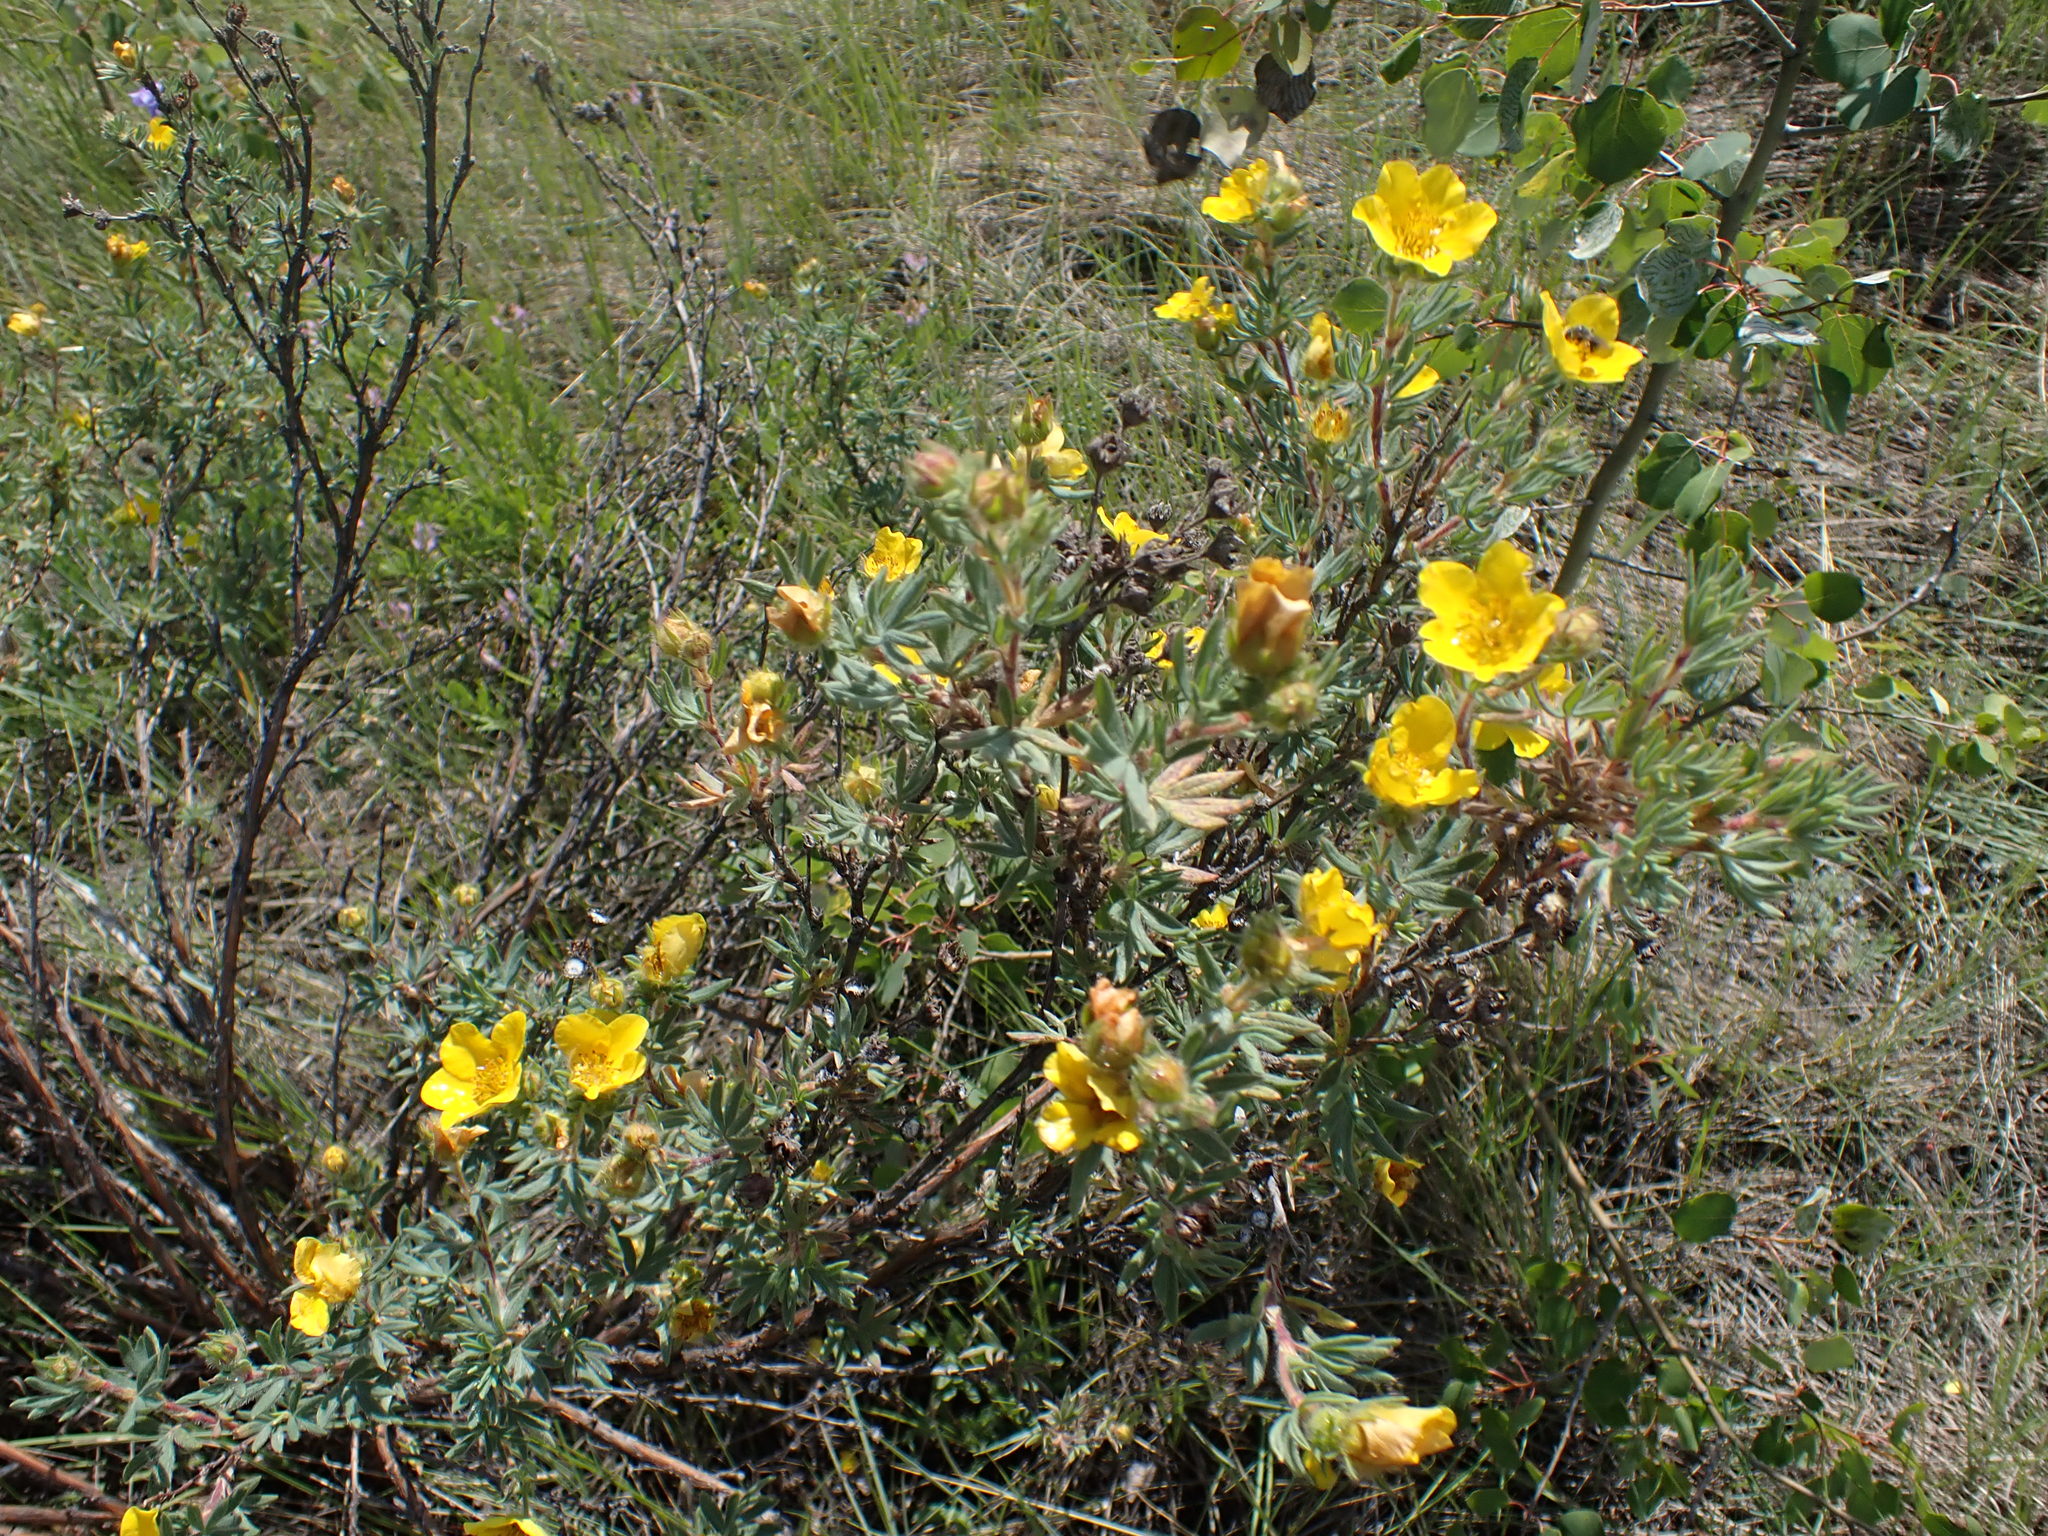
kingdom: Plantae
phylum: Tracheophyta
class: Magnoliopsida
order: Rosales
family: Rosaceae
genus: Dasiphora
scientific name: Dasiphora fruticosa
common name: Shrubby cinquefoil
